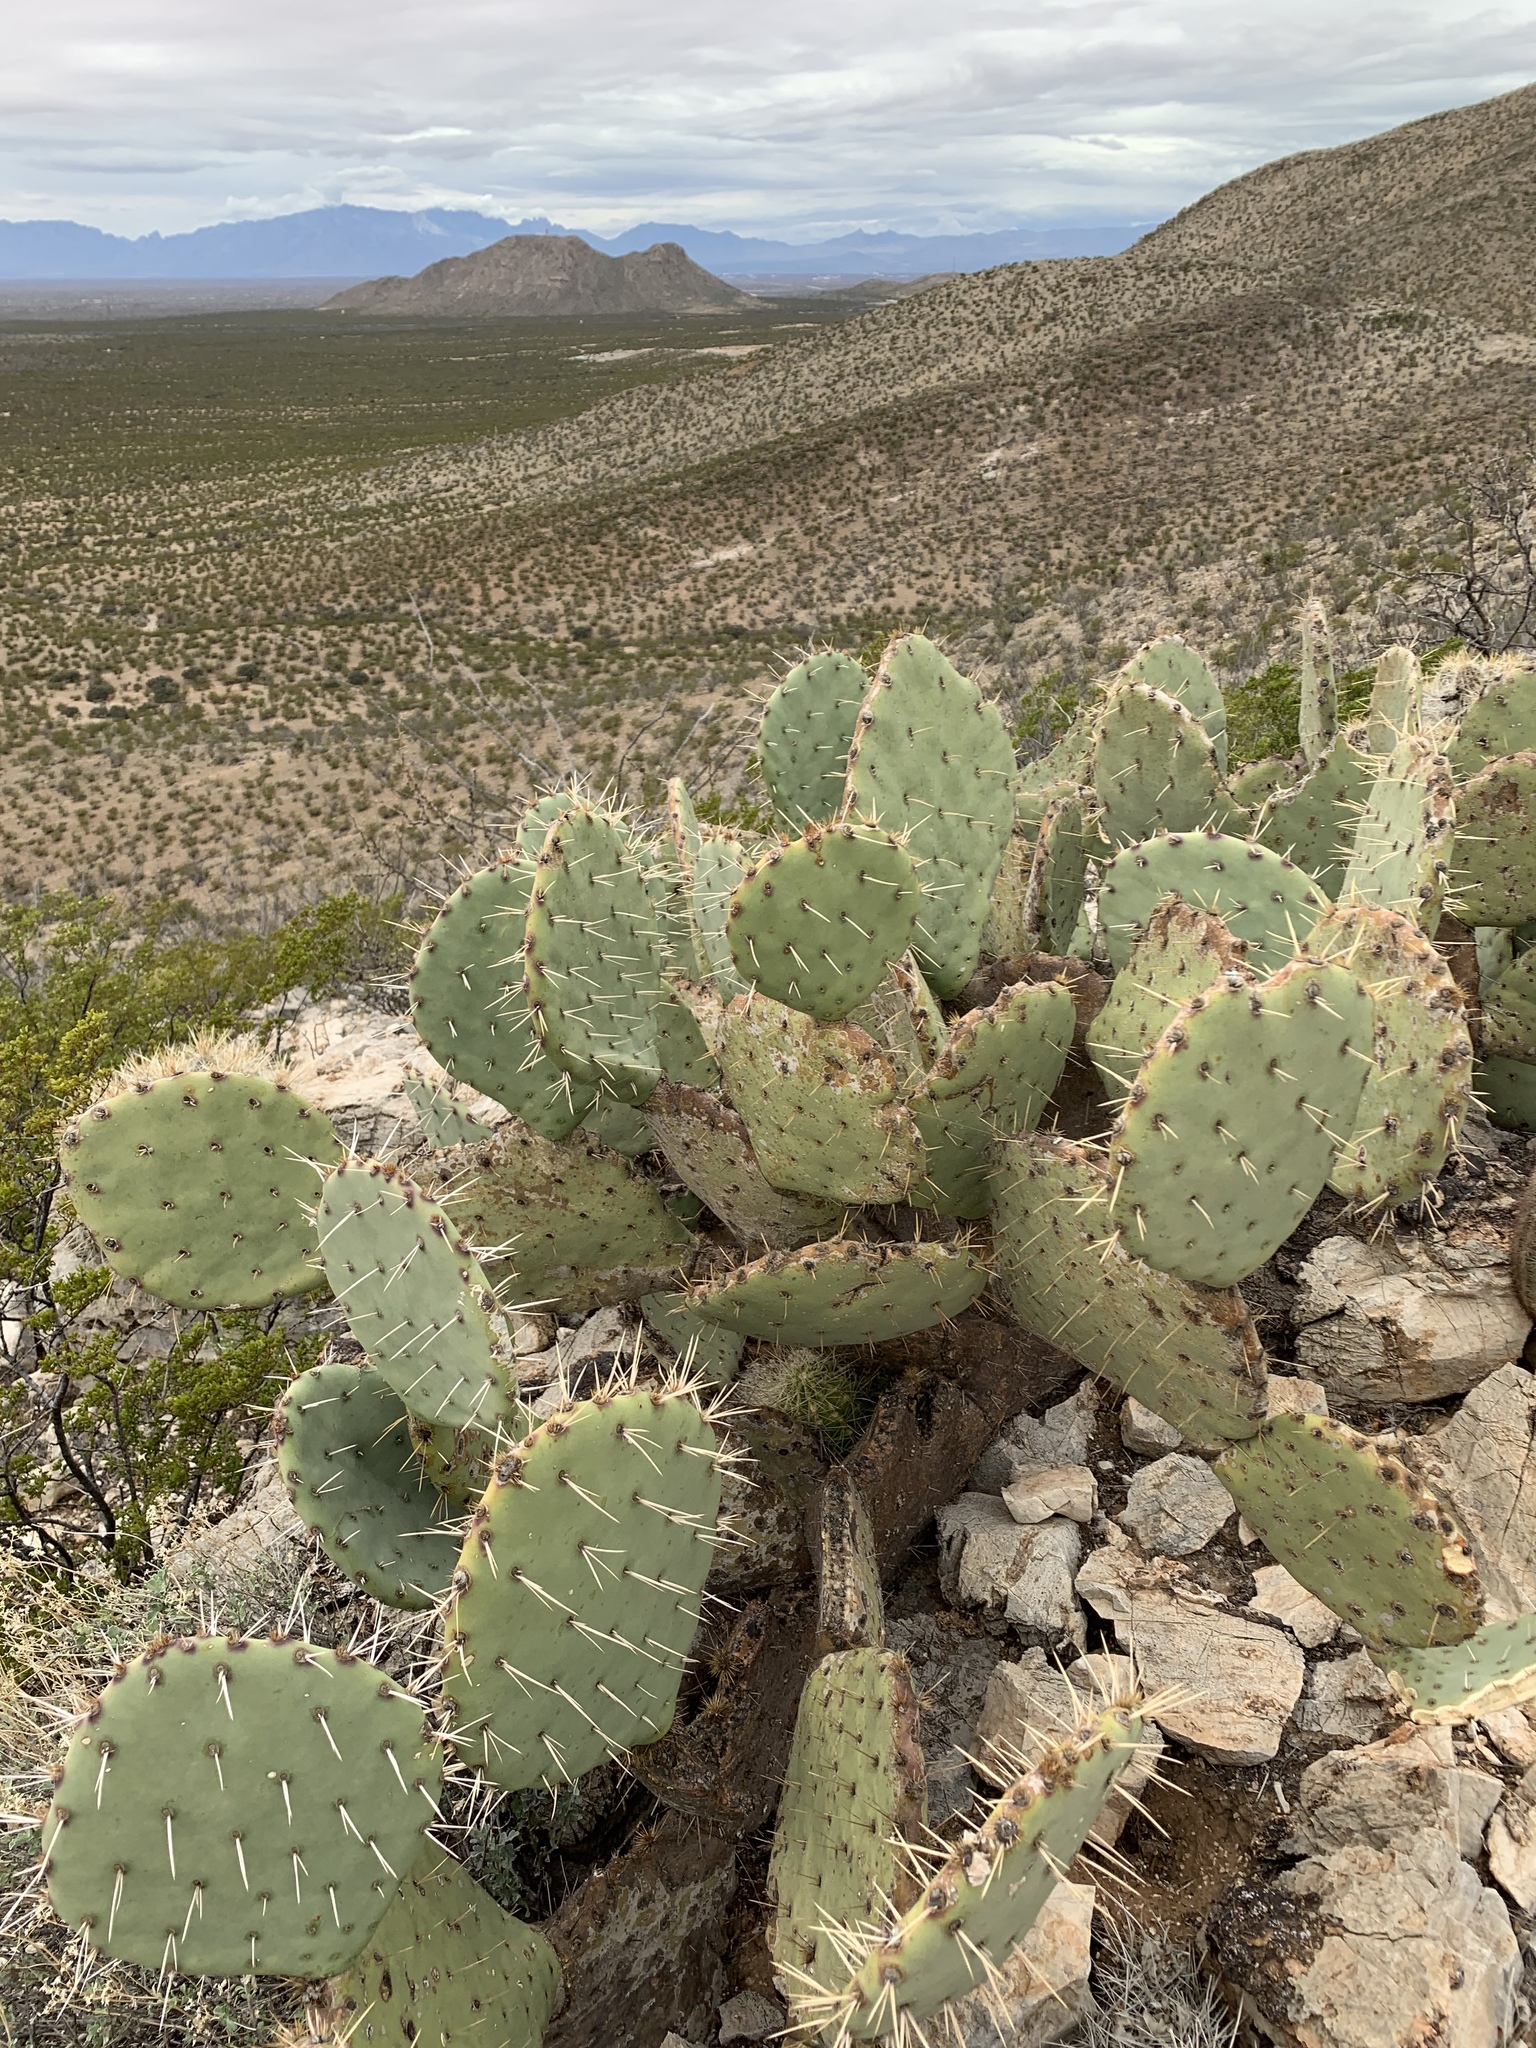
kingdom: Plantae
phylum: Tracheophyta
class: Magnoliopsida
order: Caryophyllales
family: Cactaceae
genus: Opuntia
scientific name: Opuntia engelmannii
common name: Cactus-apple
